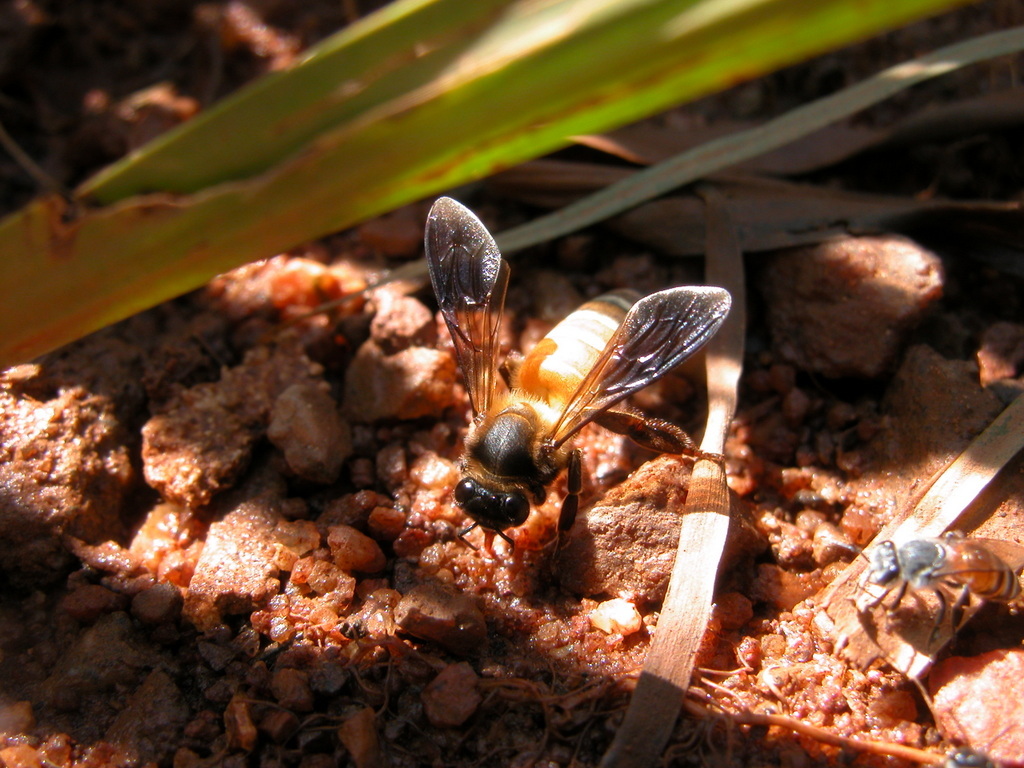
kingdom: Animalia
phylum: Arthropoda
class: Insecta
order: Hymenoptera
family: Apidae
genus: Apis
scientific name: Apis dorsata
